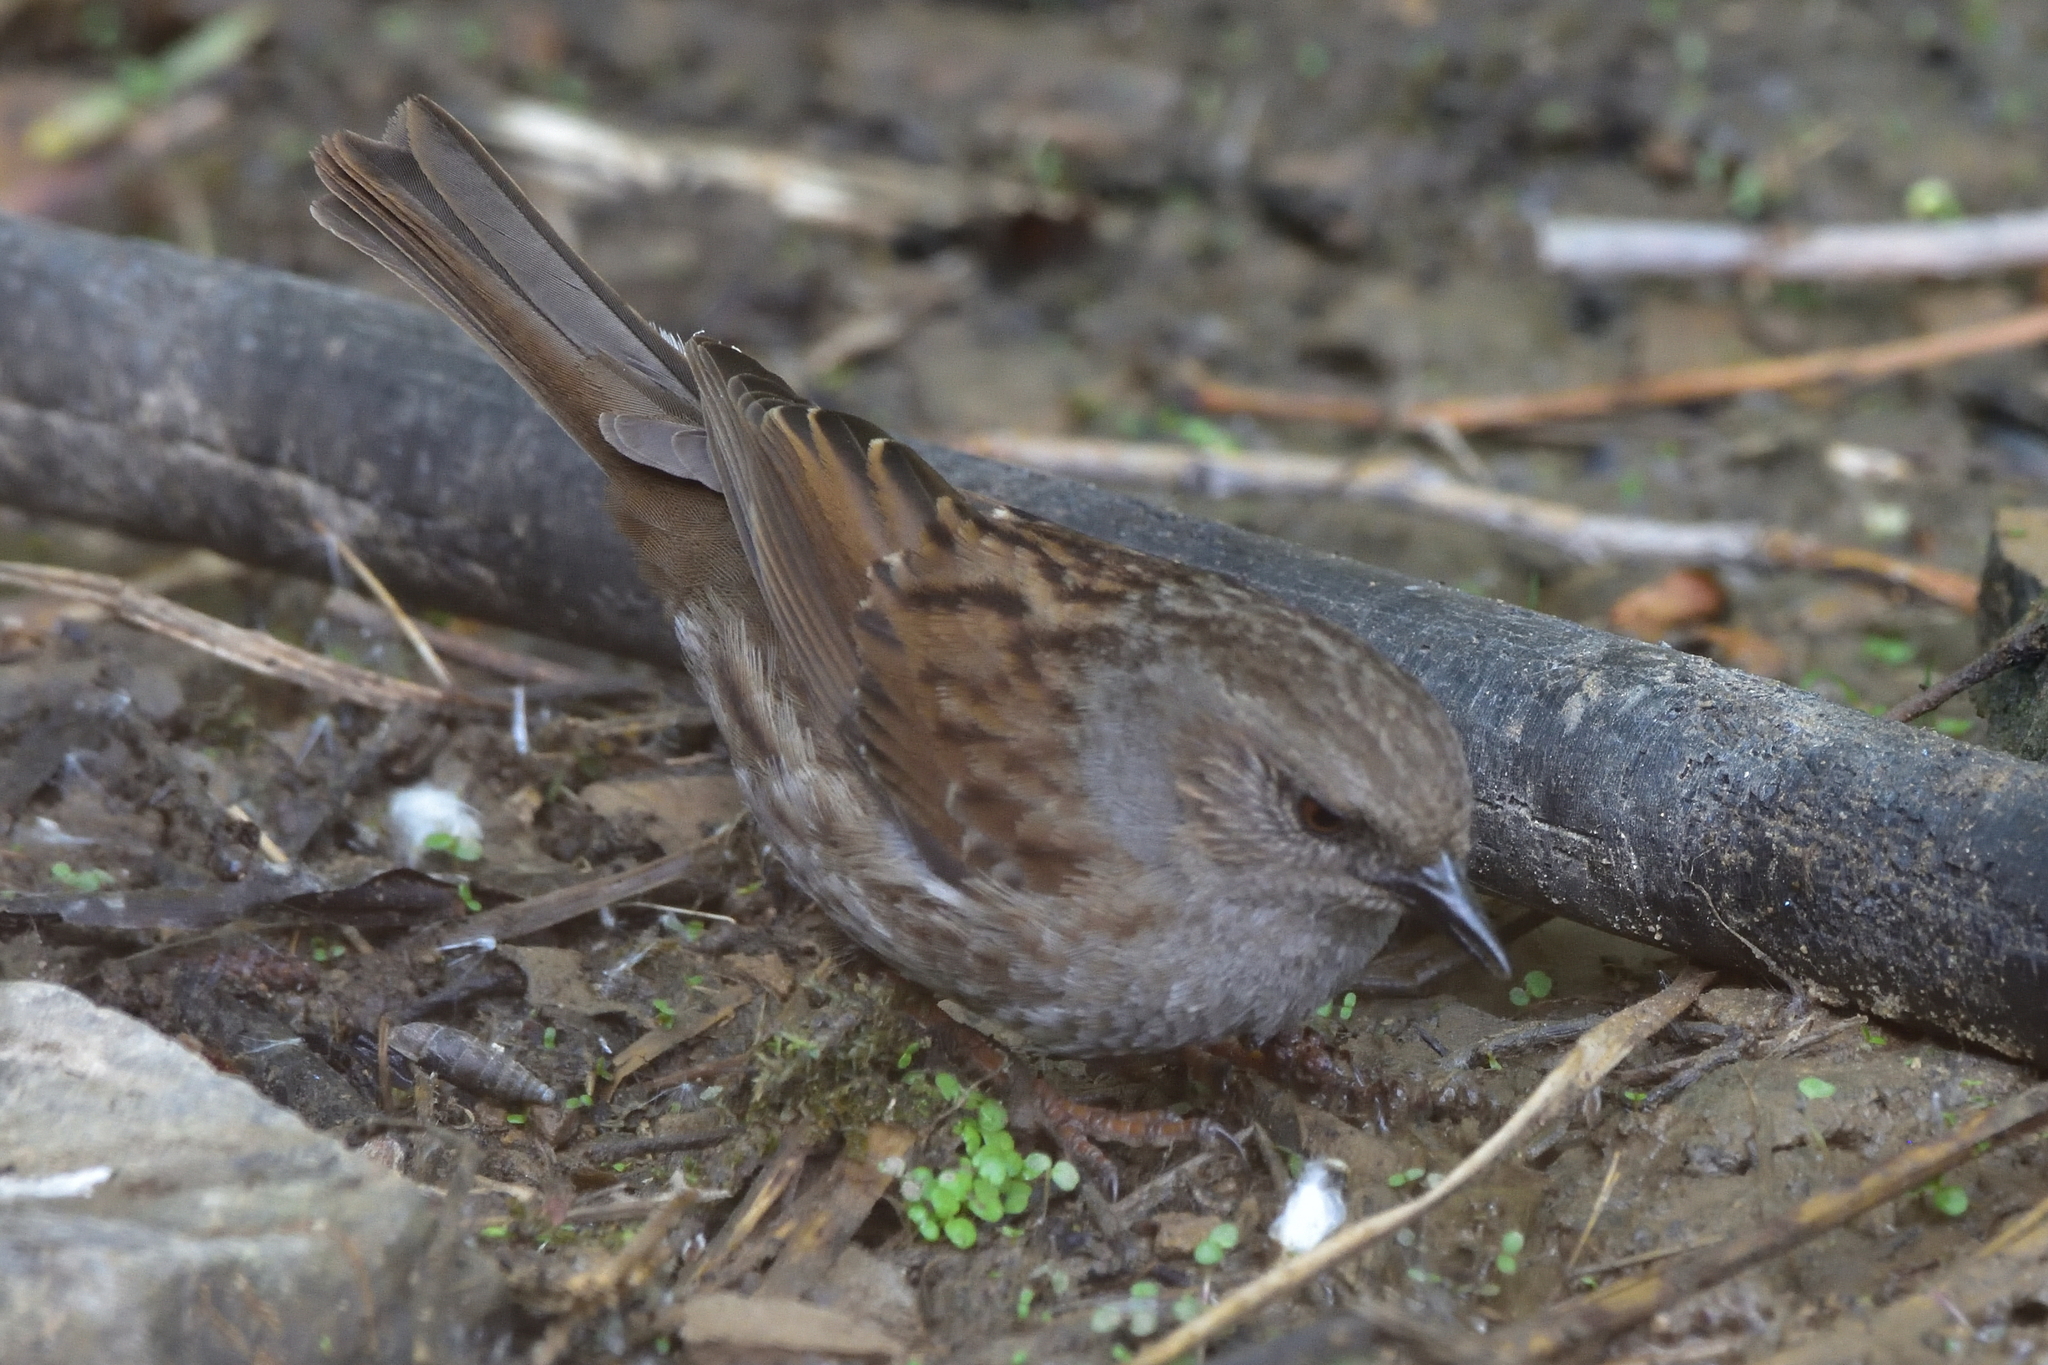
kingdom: Animalia
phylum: Chordata
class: Aves
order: Passeriformes
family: Prunellidae
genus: Prunella
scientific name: Prunella modularis
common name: Dunnock
